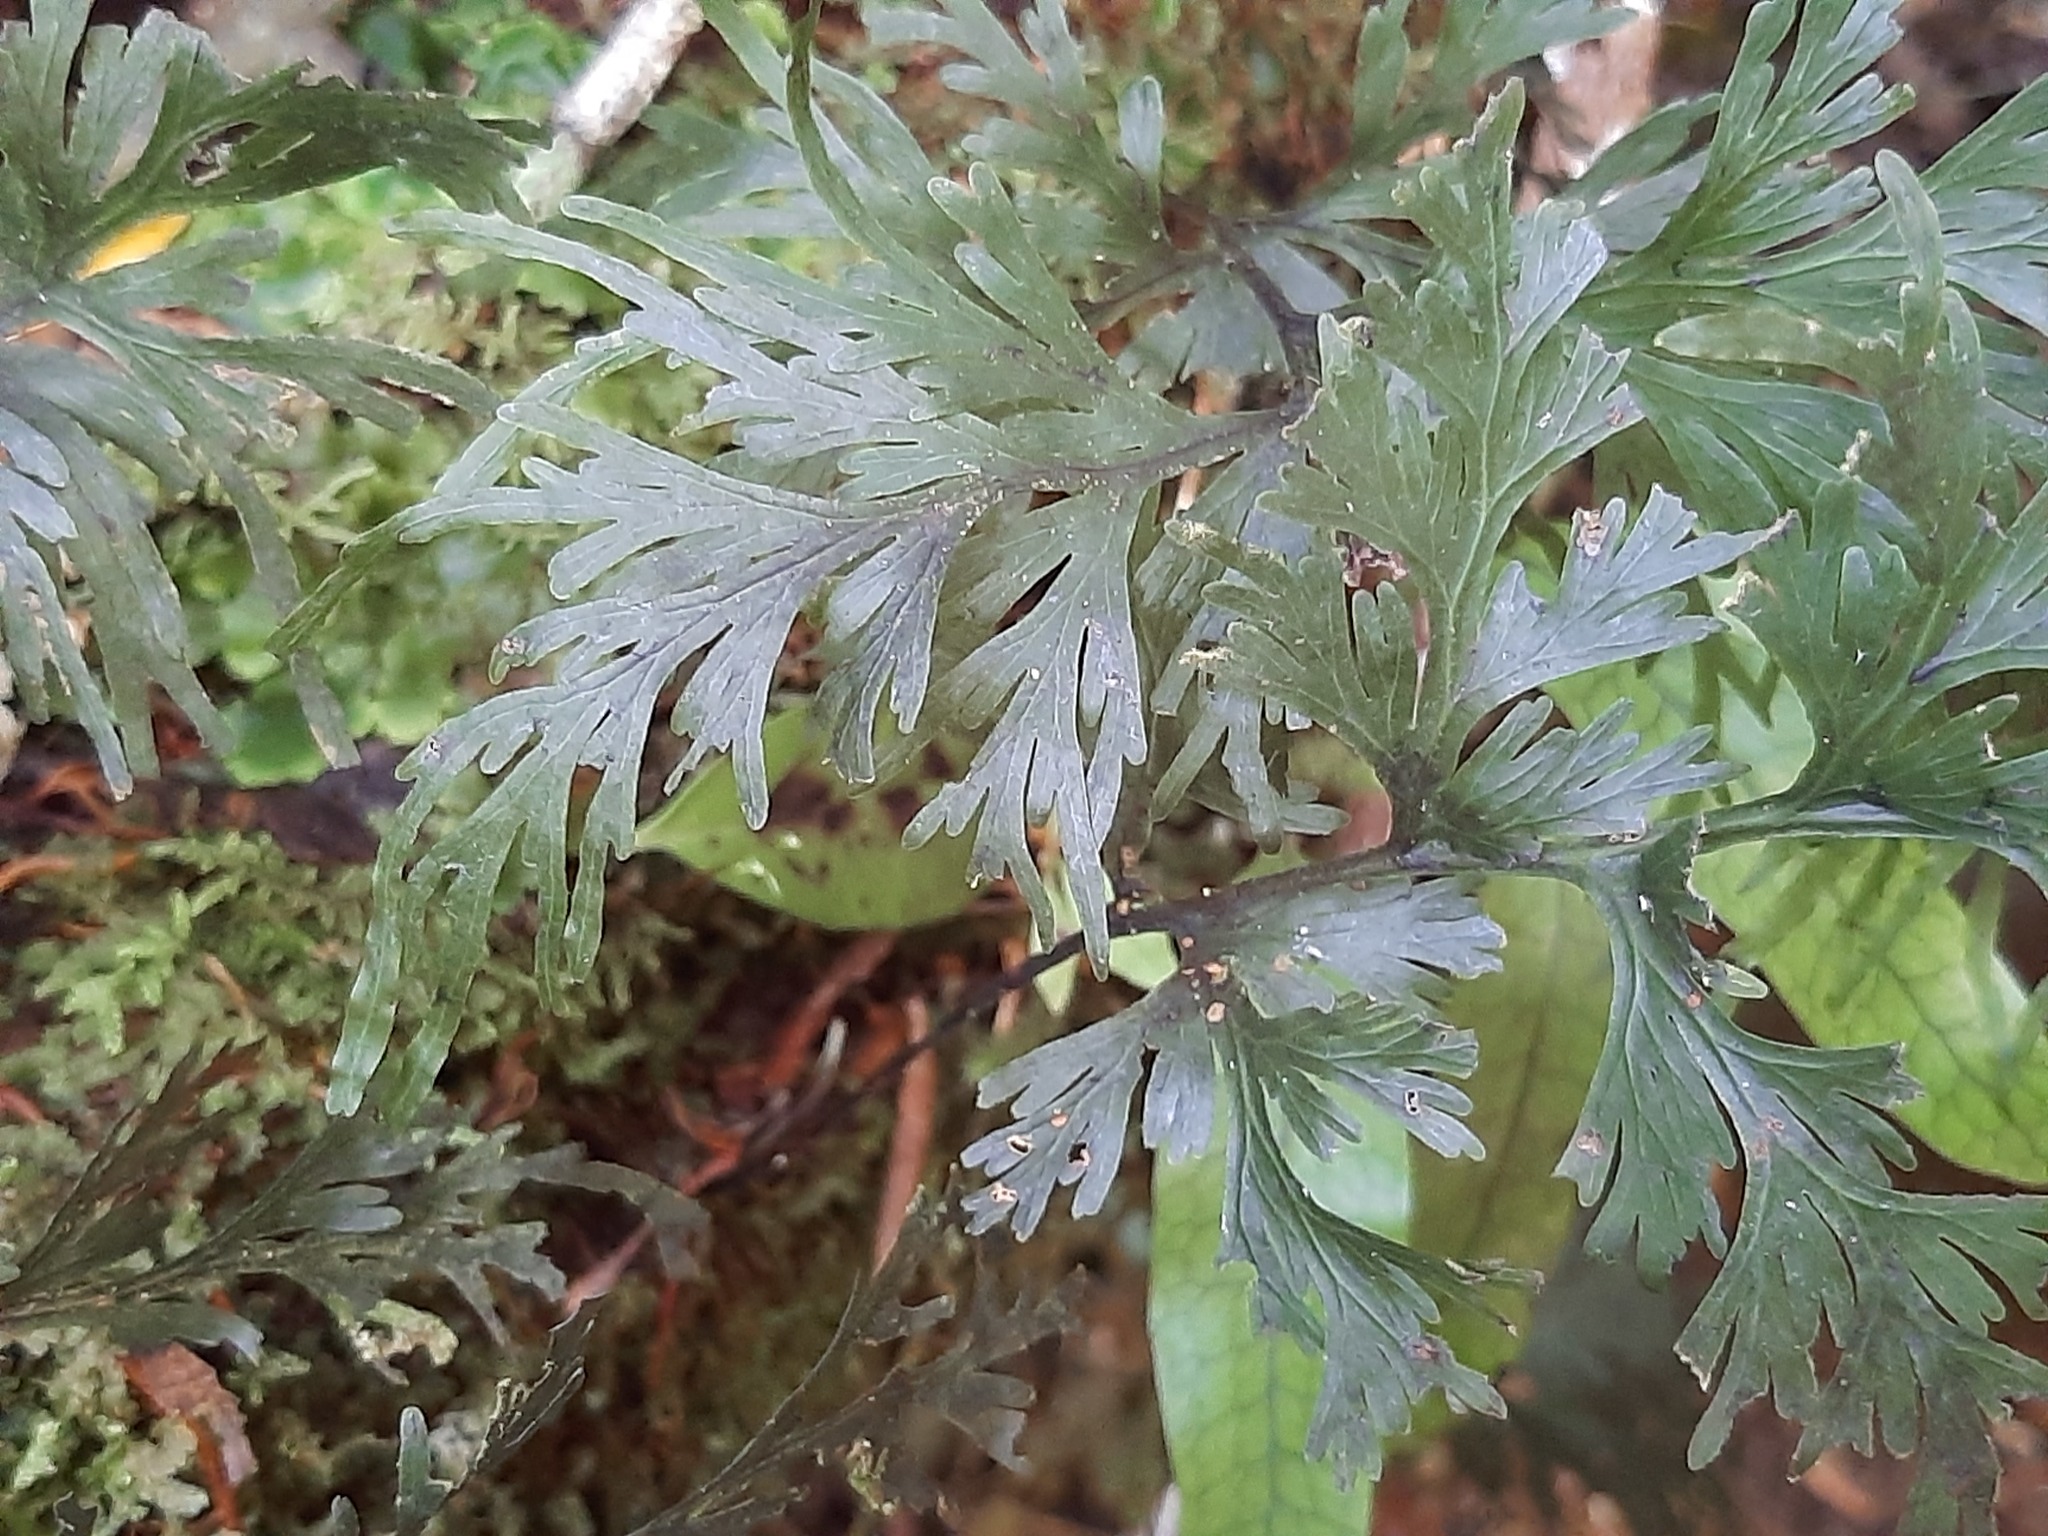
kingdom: Plantae
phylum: Tracheophyta
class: Polypodiopsida
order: Hymenophyllales
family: Hymenophyllaceae
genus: Hymenophyllum
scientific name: Hymenophyllum dilatatum
